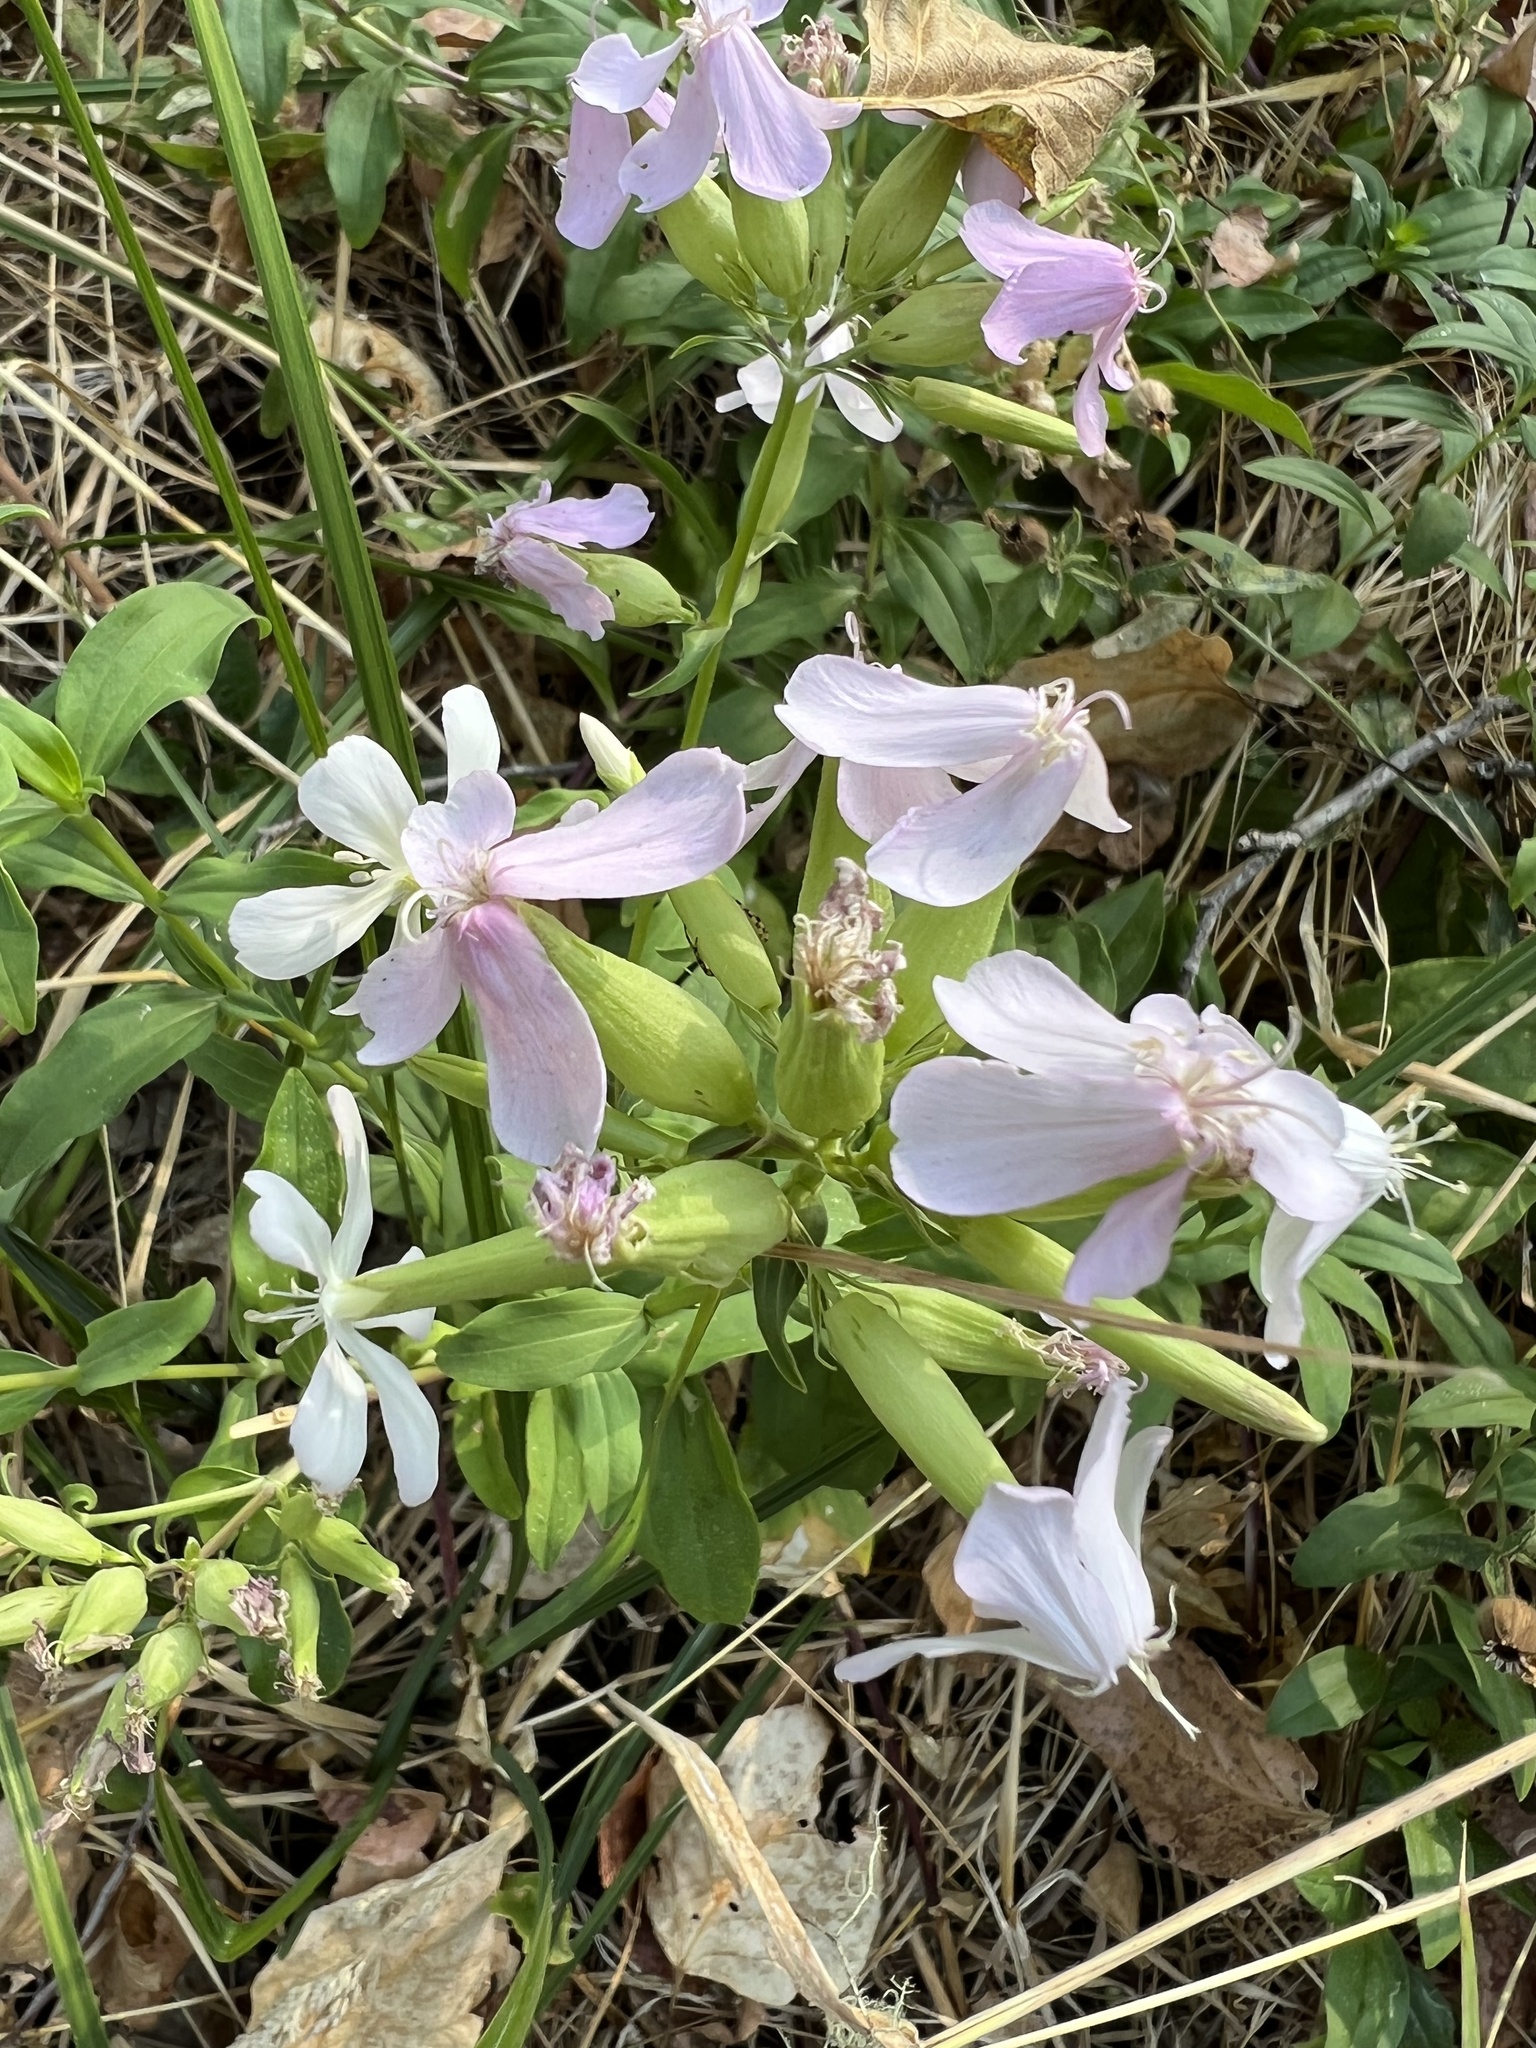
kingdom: Plantae
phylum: Tracheophyta
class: Magnoliopsida
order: Caryophyllales
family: Caryophyllaceae
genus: Saponaria
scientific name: Saponaria officinalis
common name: Soapwort
